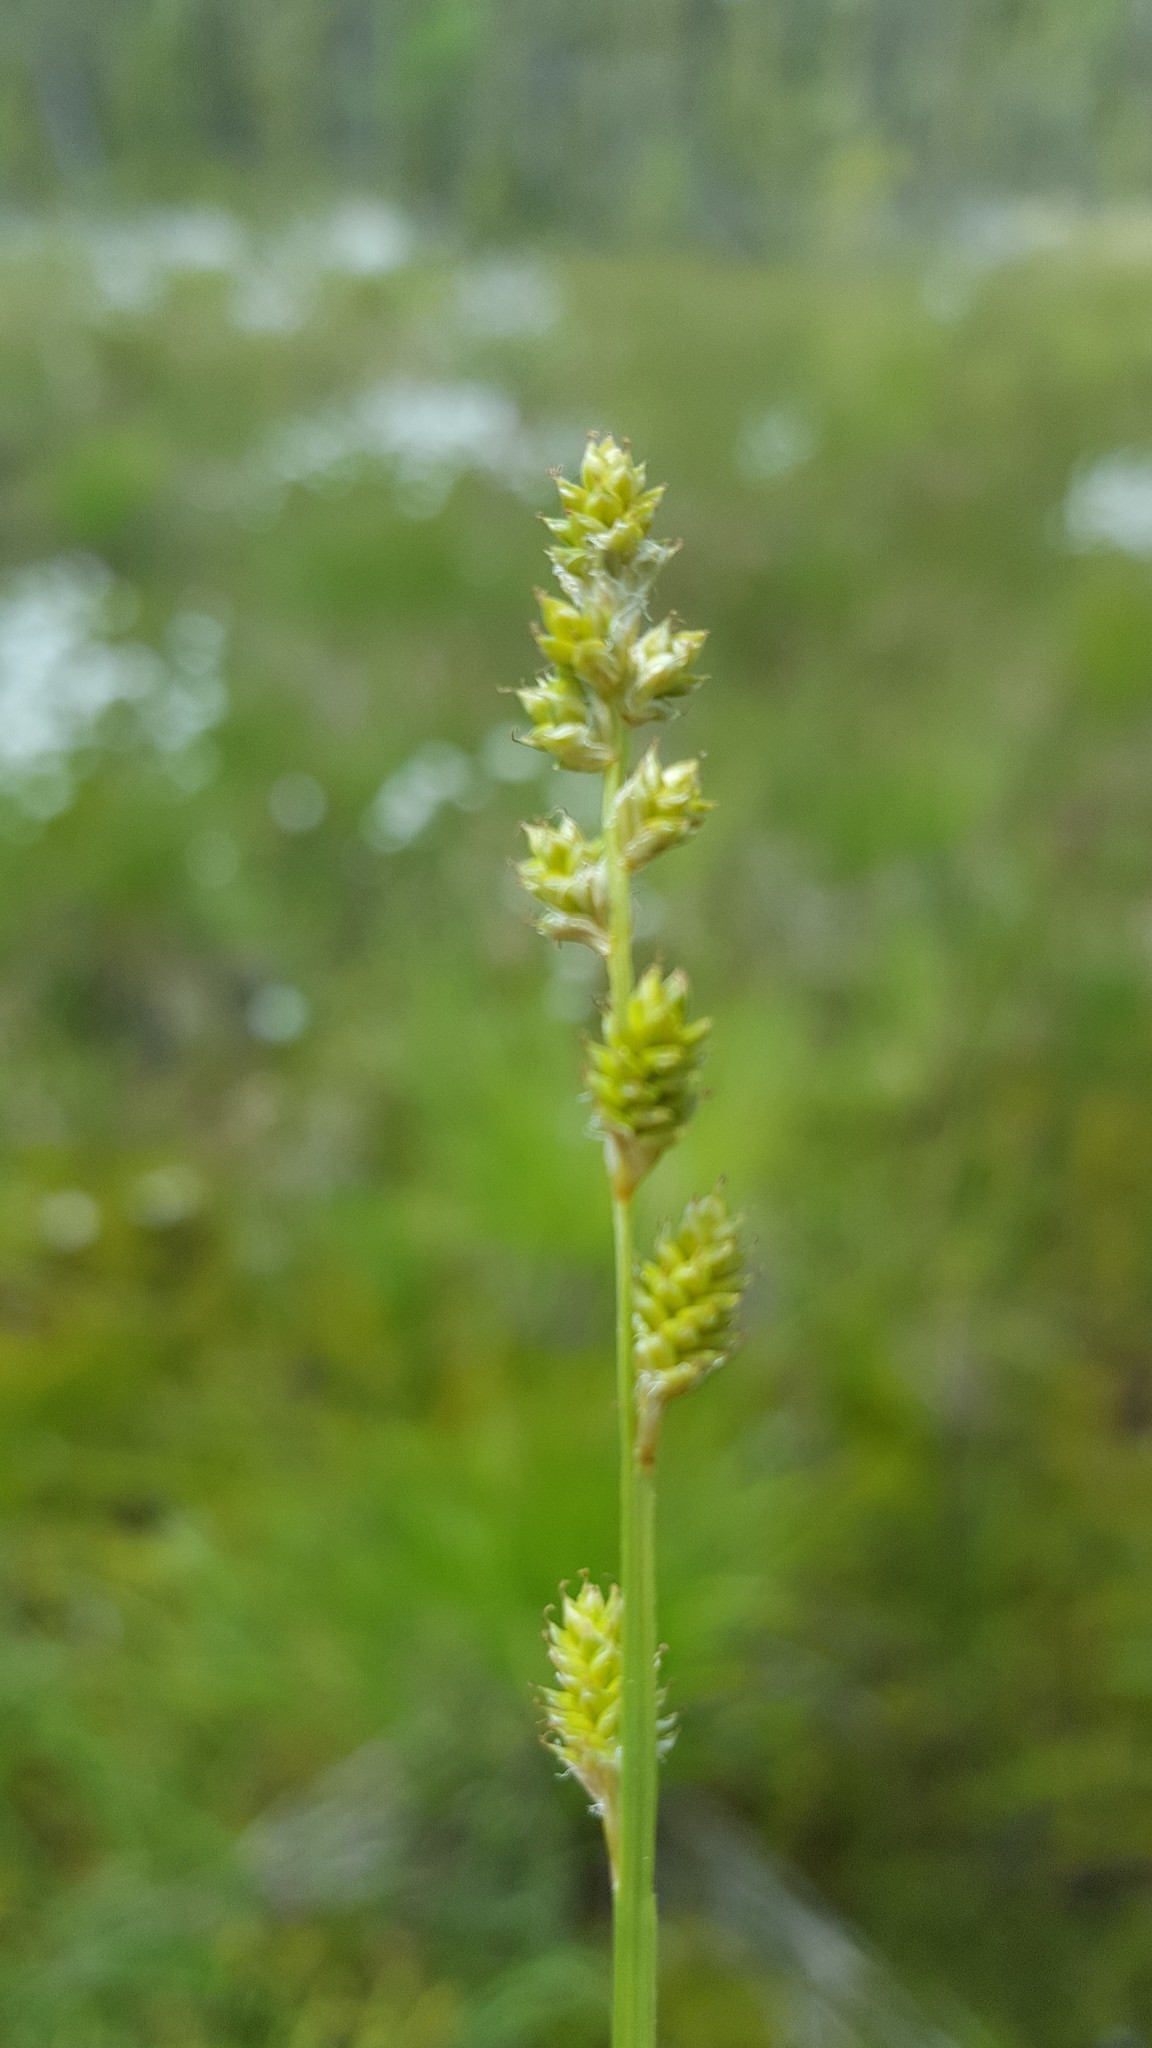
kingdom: Plantae
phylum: Tracheophyta
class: Liliopsida
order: Poales
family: Cyperaceae
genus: Carex
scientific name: Carex canescens
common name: White sedge
